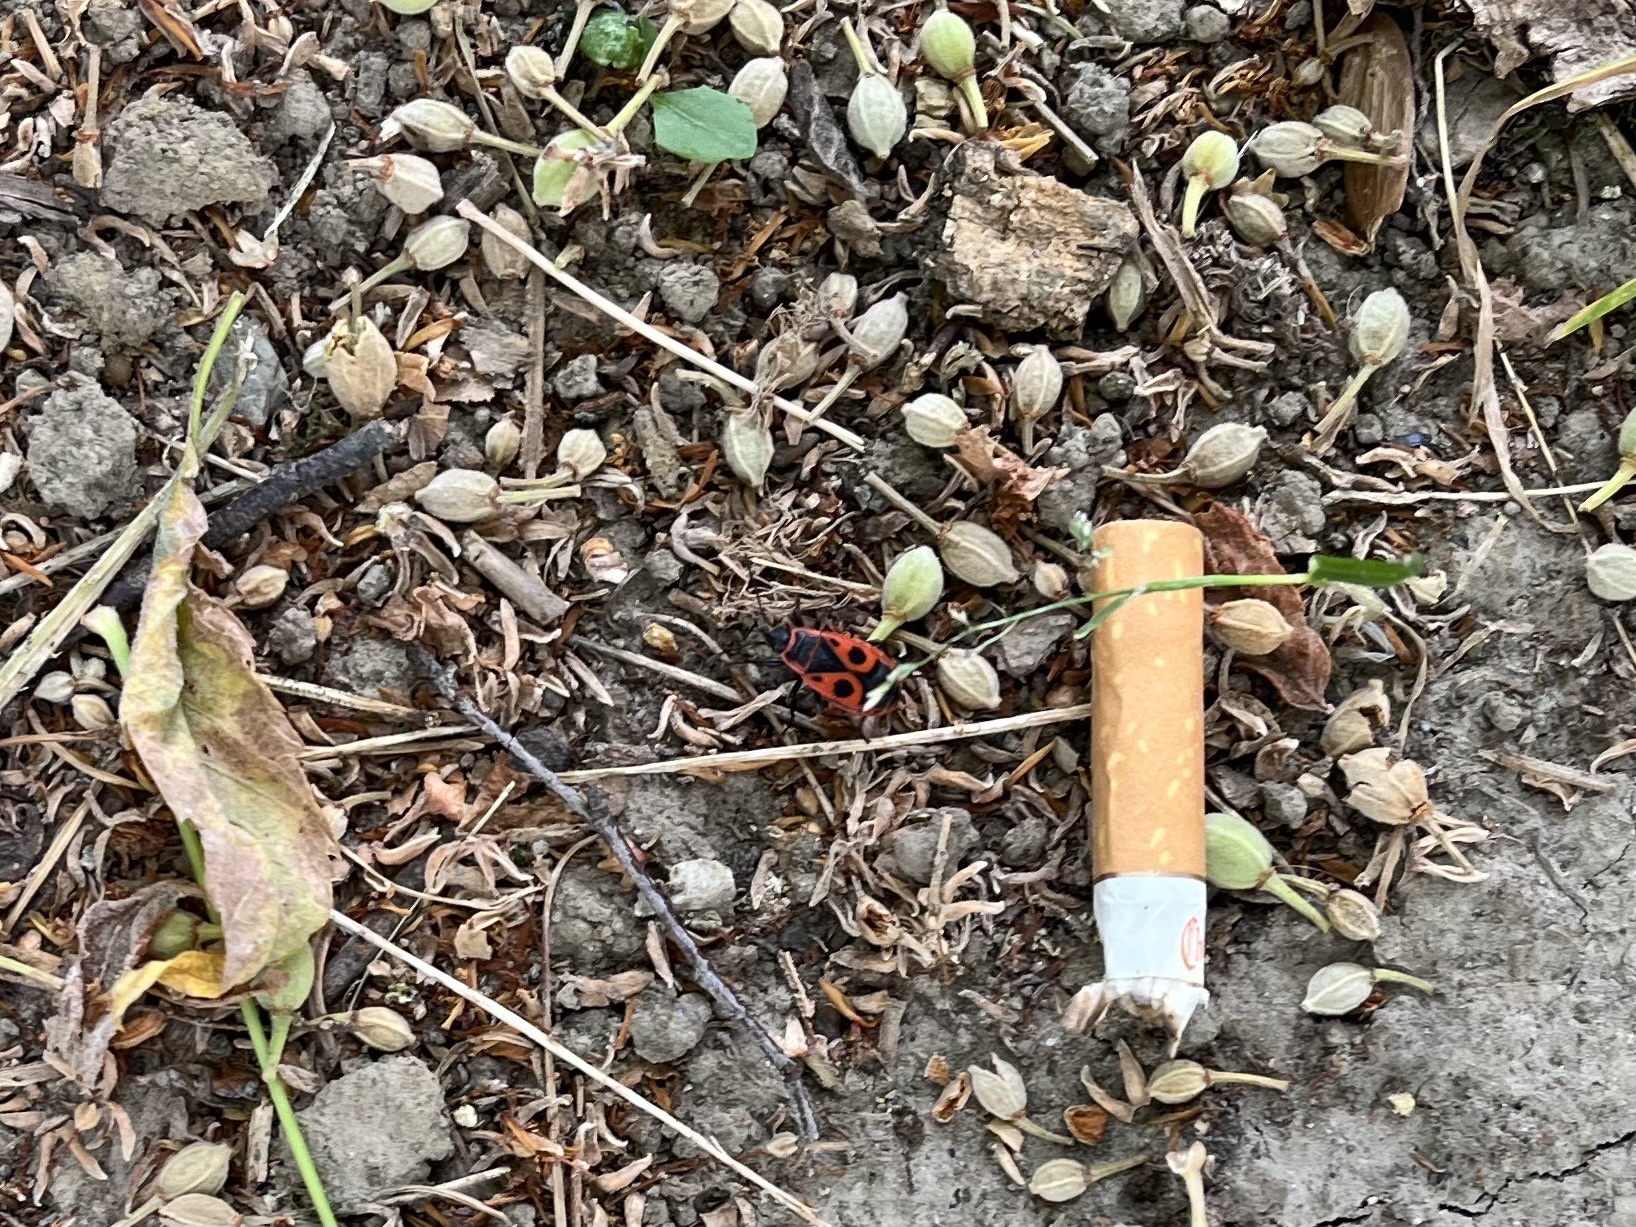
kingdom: Animalia
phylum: Arthropoda
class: Insecta
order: Hemiptera
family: Pyrrhocoridae
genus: Pyrrhocoris
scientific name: Pyrrhocoris apterus
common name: Firebug
